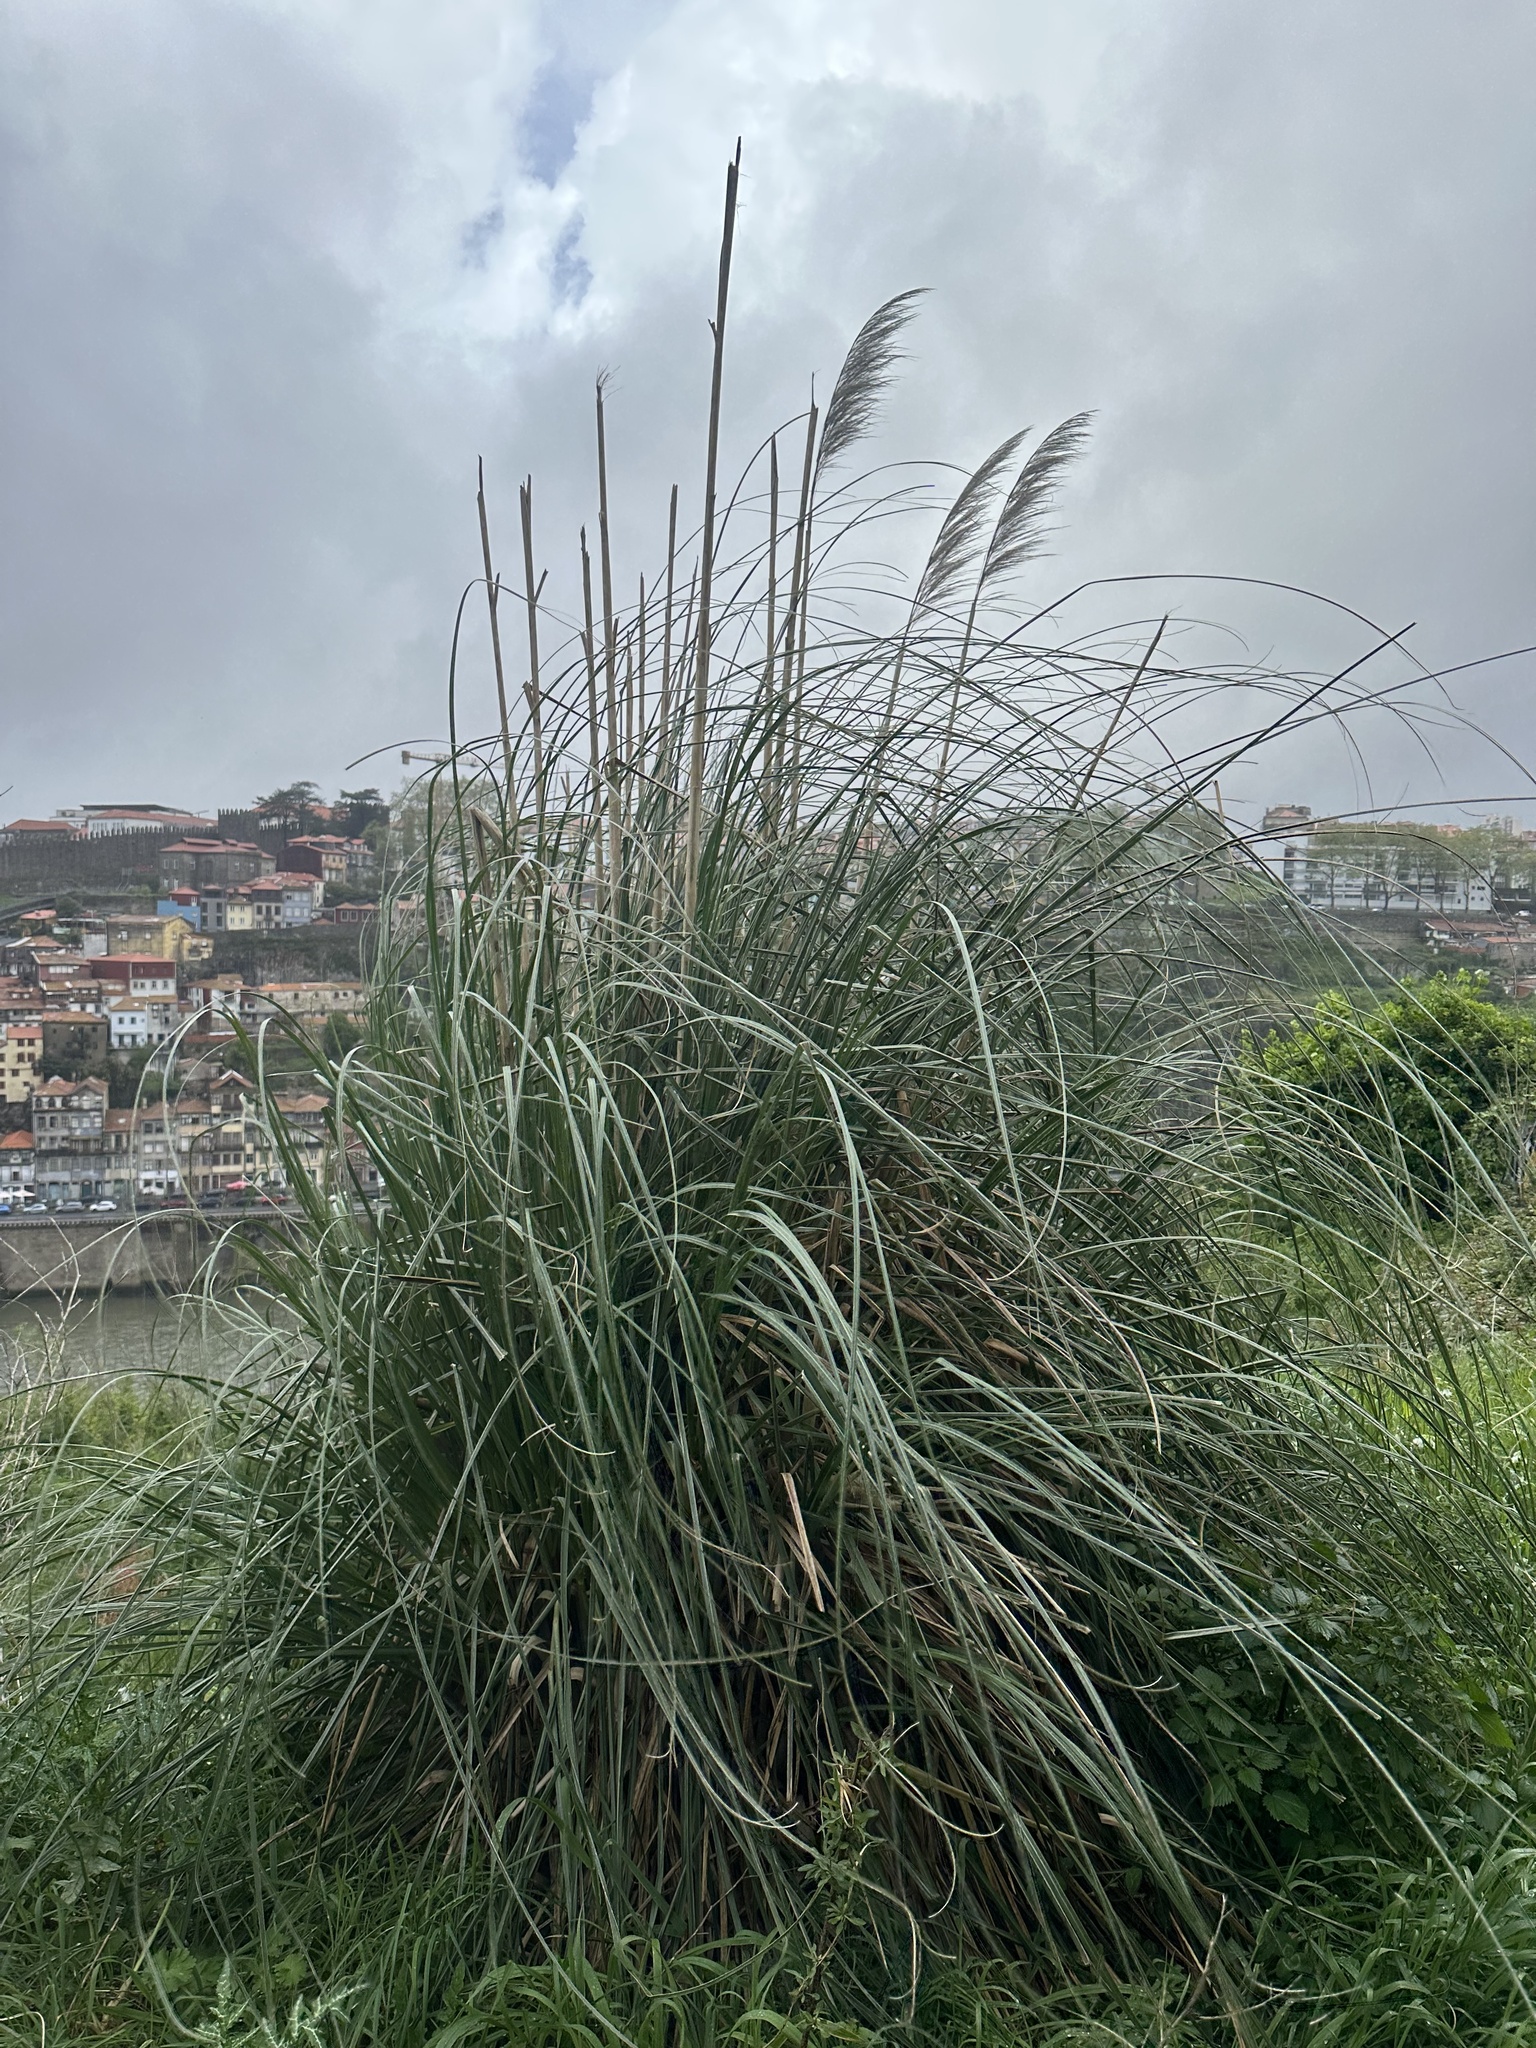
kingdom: Plantae
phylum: Tracheophyta
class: Liliopsida
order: Poales
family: Poaceae
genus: Cortaderia
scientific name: Cortaderia selloana
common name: Uruguayan pampas grass
